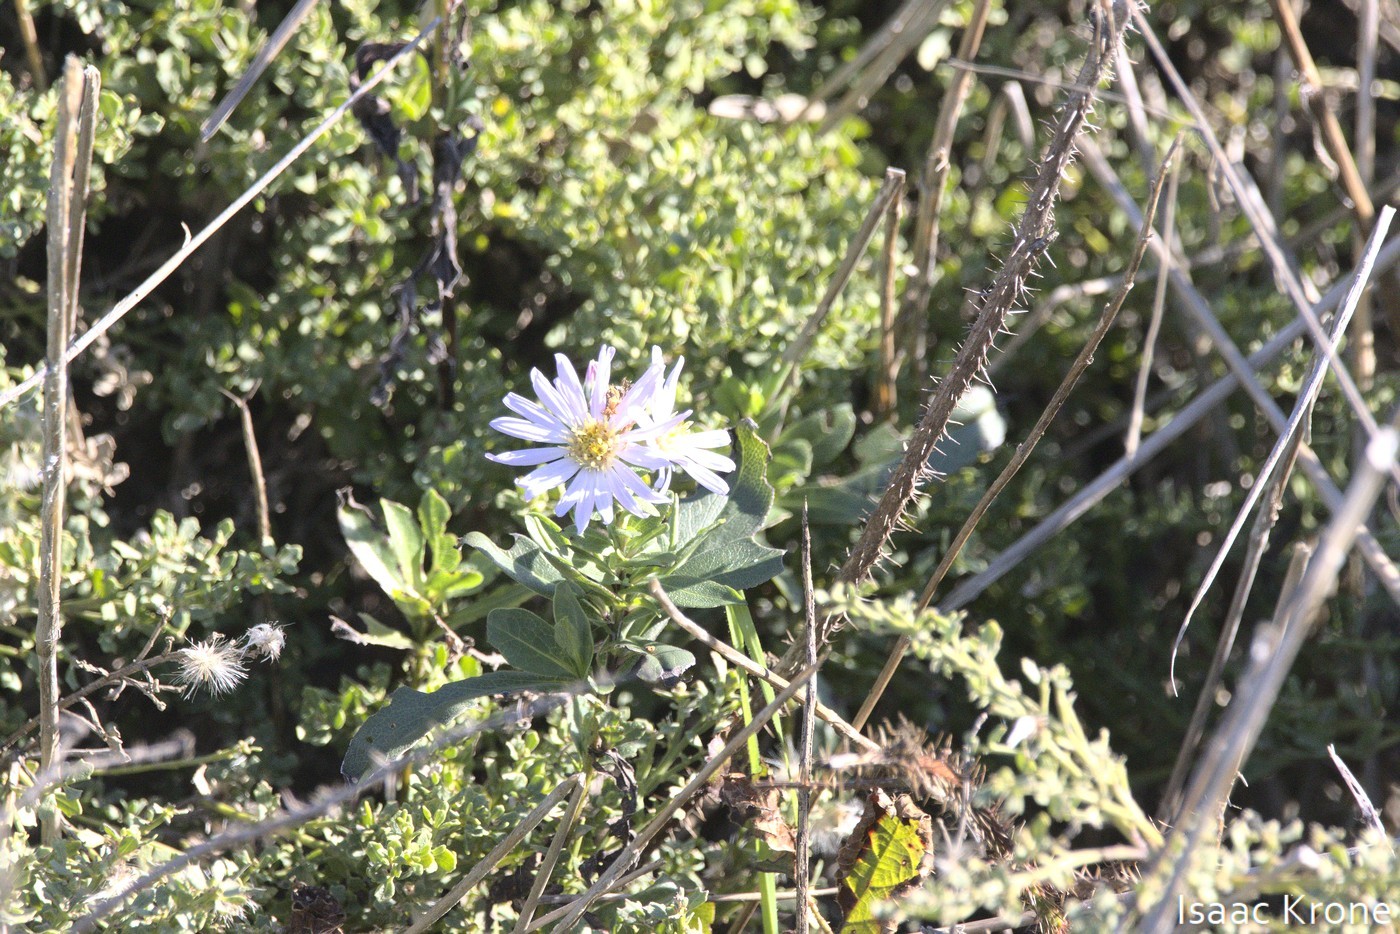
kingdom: Plantae
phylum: Tracheophyta
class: Magnoliopsida
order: Asterales
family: Asteraceae
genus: Symphyotrichum
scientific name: Symphyotrichum chilense
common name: Pacific aster
